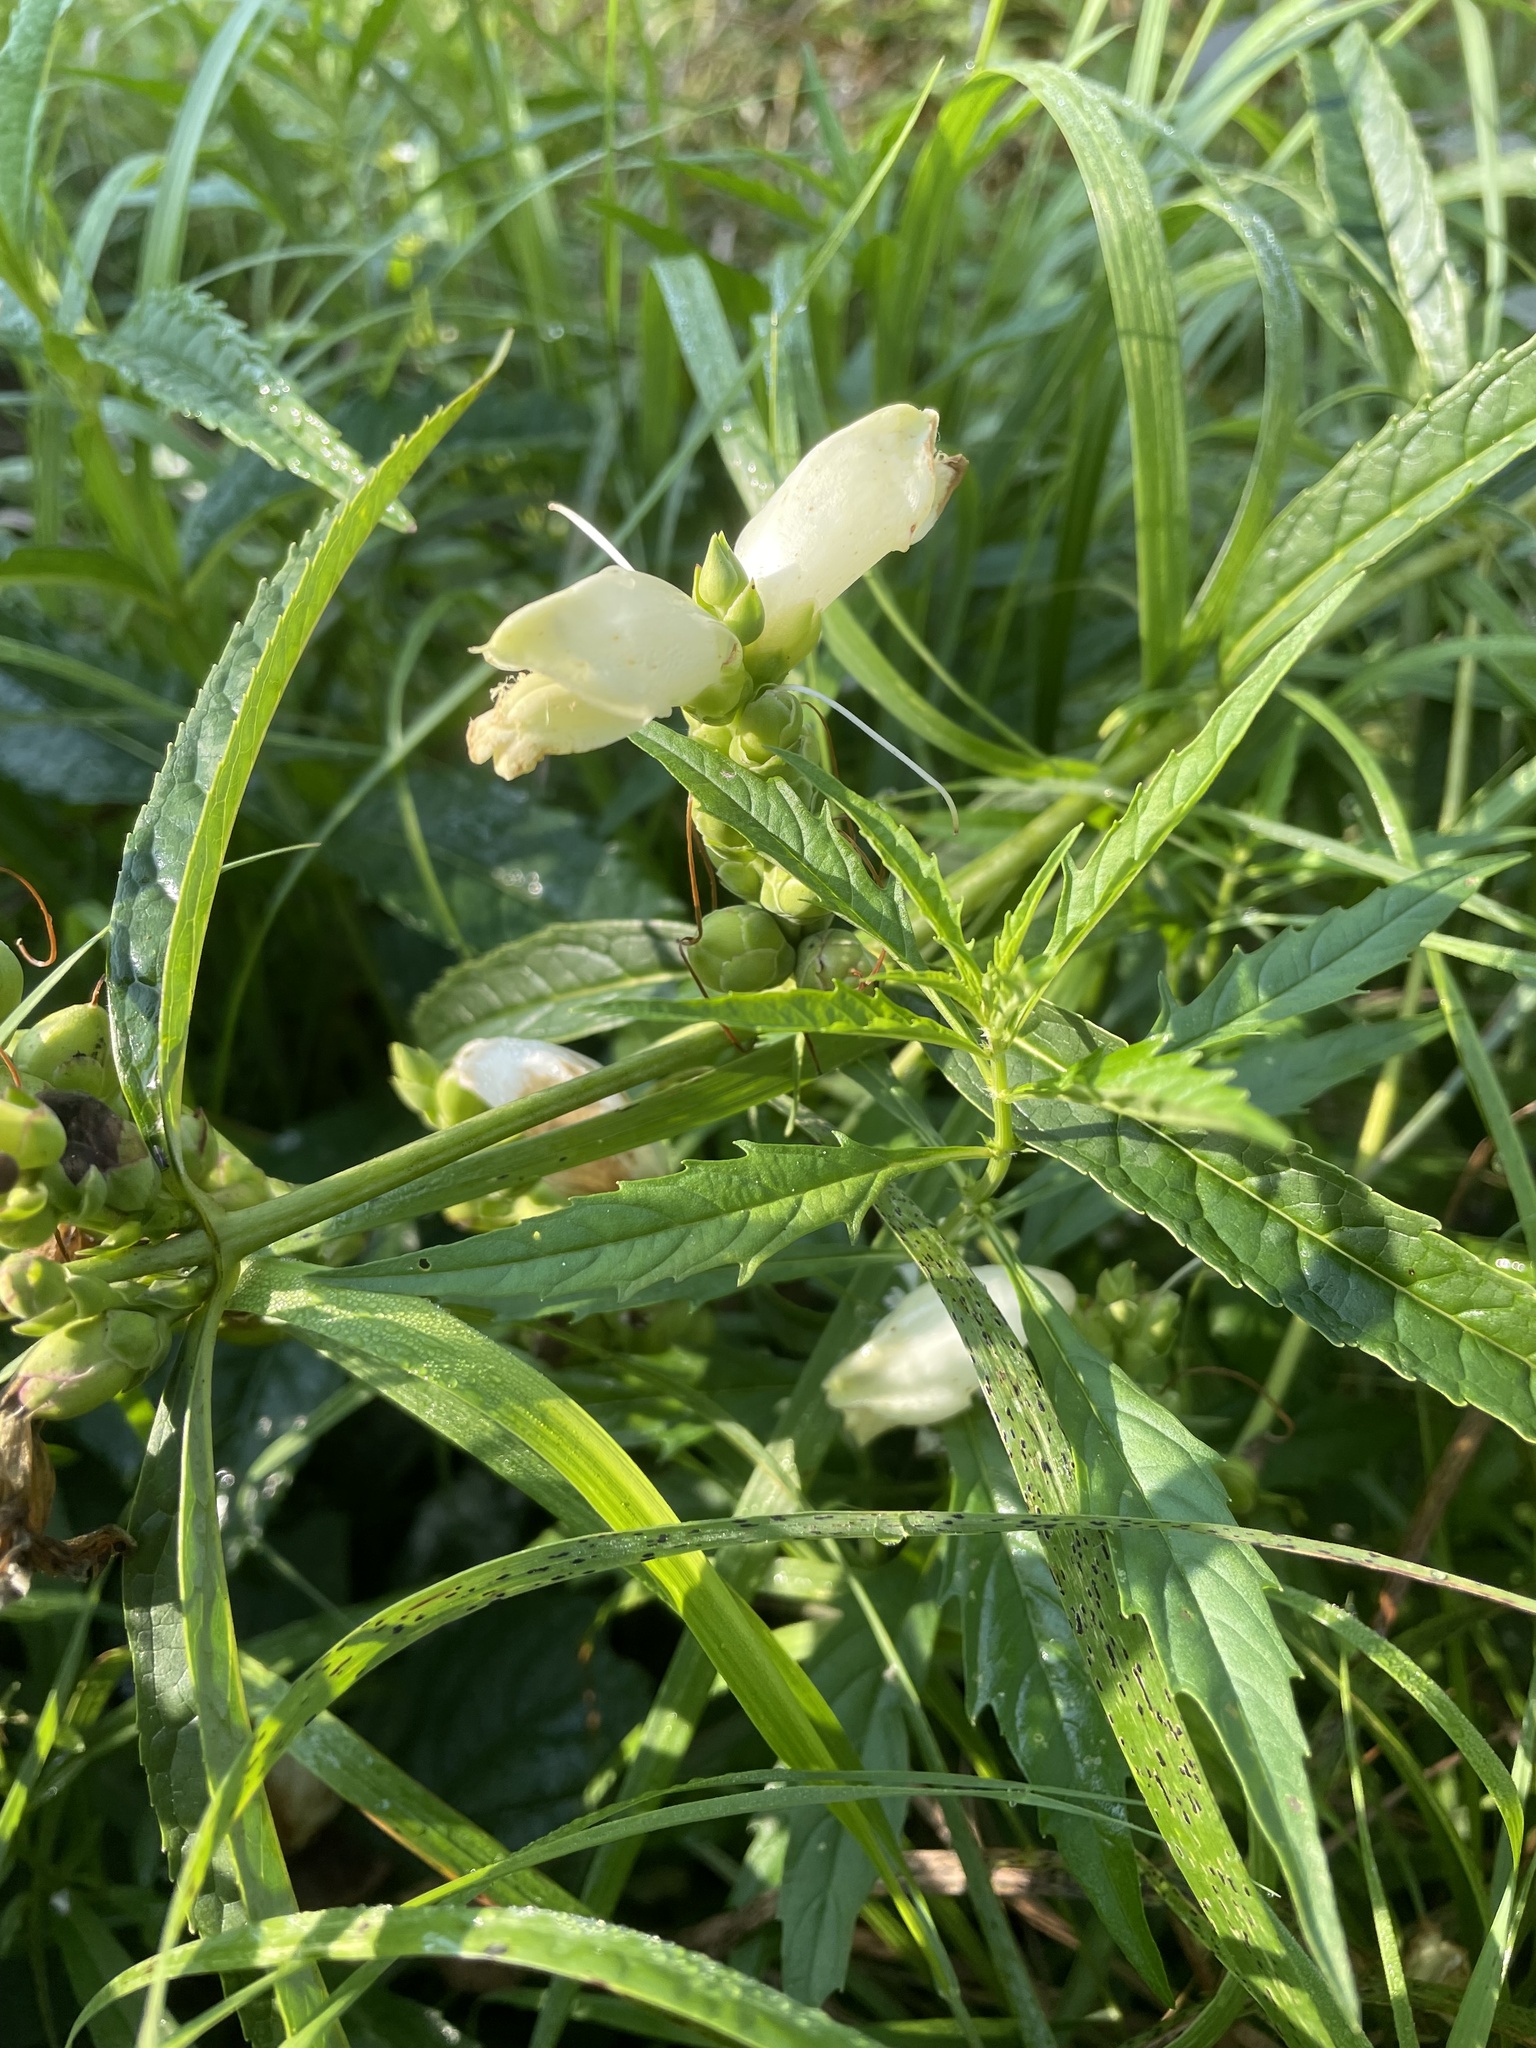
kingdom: Plantae
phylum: Tracheophyta
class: Magnoliopsida
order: Lamiales
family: Plantaginaceae
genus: Chelone
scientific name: Chelone glabra
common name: Snakehead
